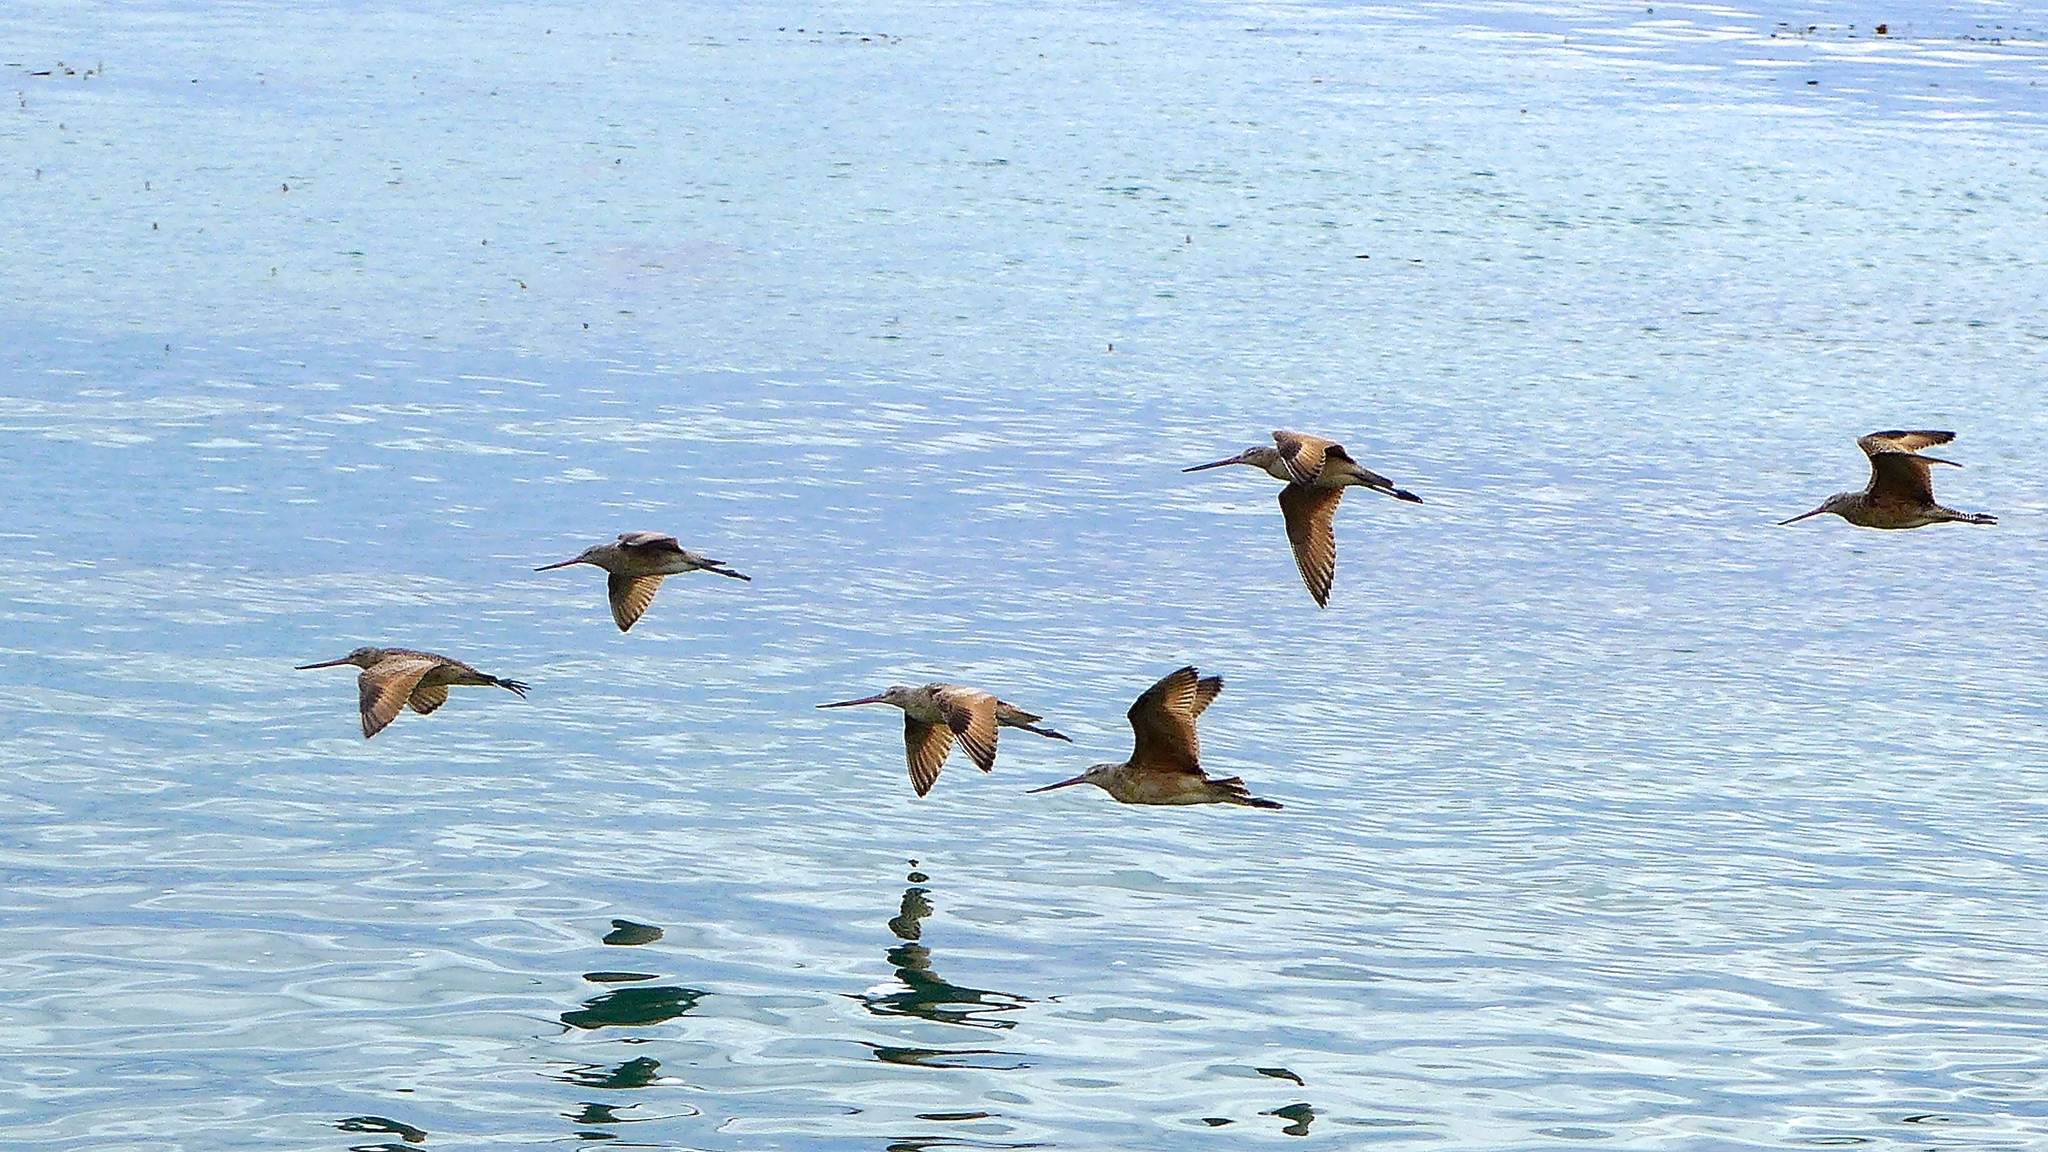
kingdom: Animalia
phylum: Chordata
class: Aves
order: Charadriiformes
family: Scolopacidae
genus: Limosa
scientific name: Limosa fedoa
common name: Marbled godwit
